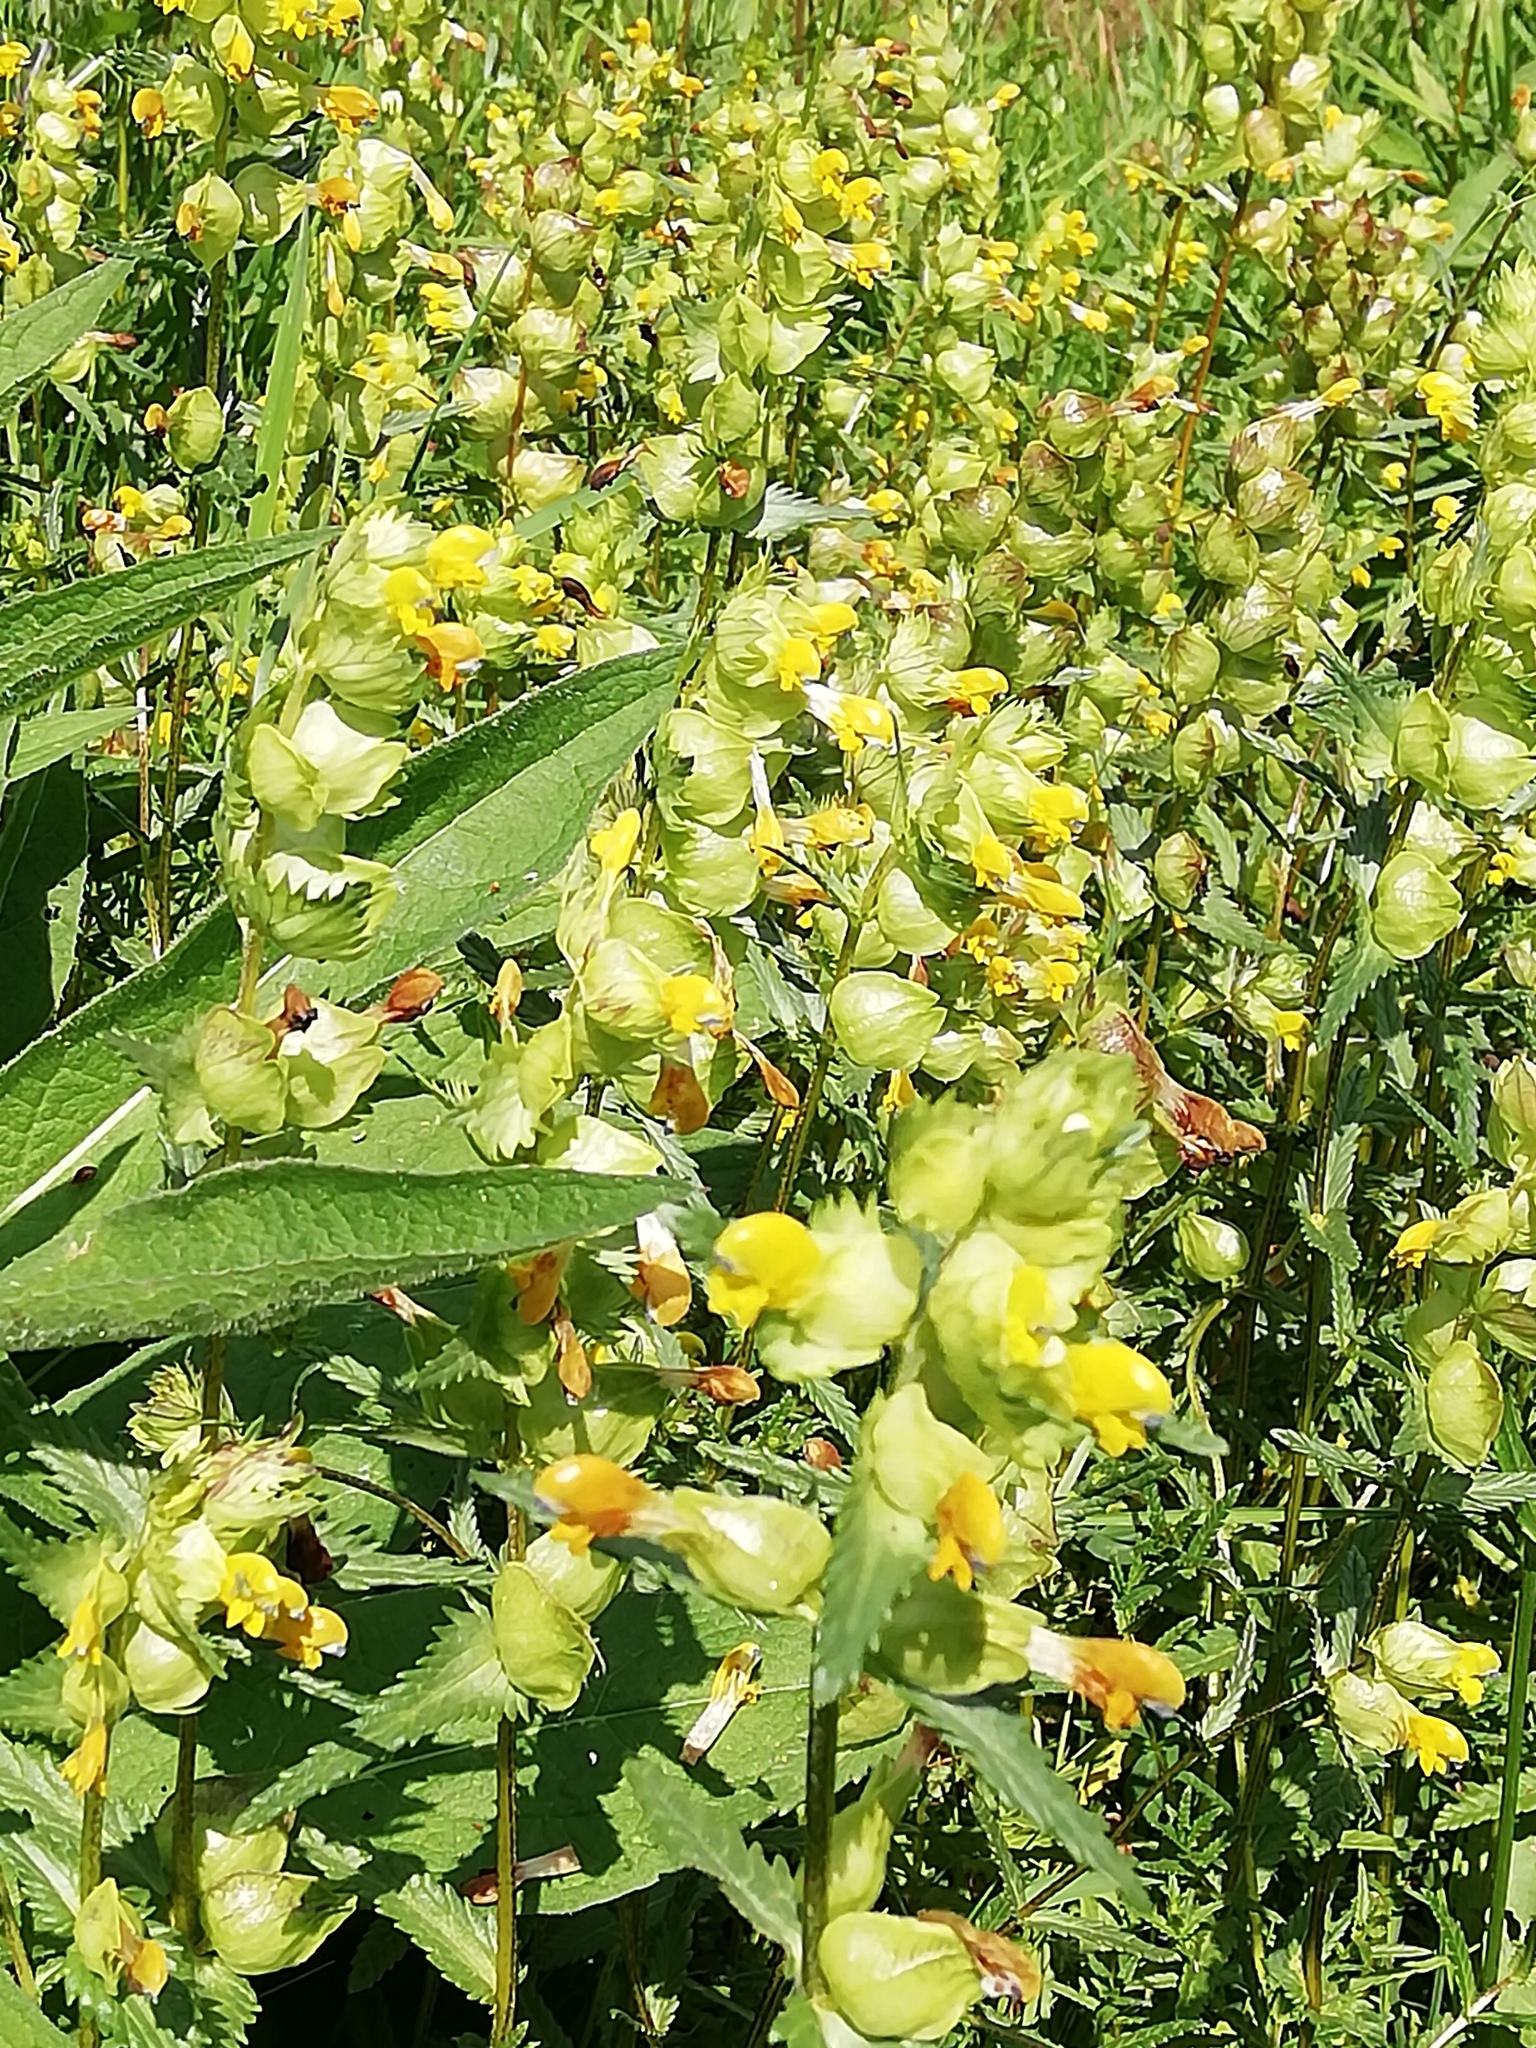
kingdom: Plantae
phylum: Tracheophyta
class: Magnoliopsida
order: Lamiales
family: Orobanchaceae
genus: Rhinanthus
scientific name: Rhinanthus minor
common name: Yellow-rattle
